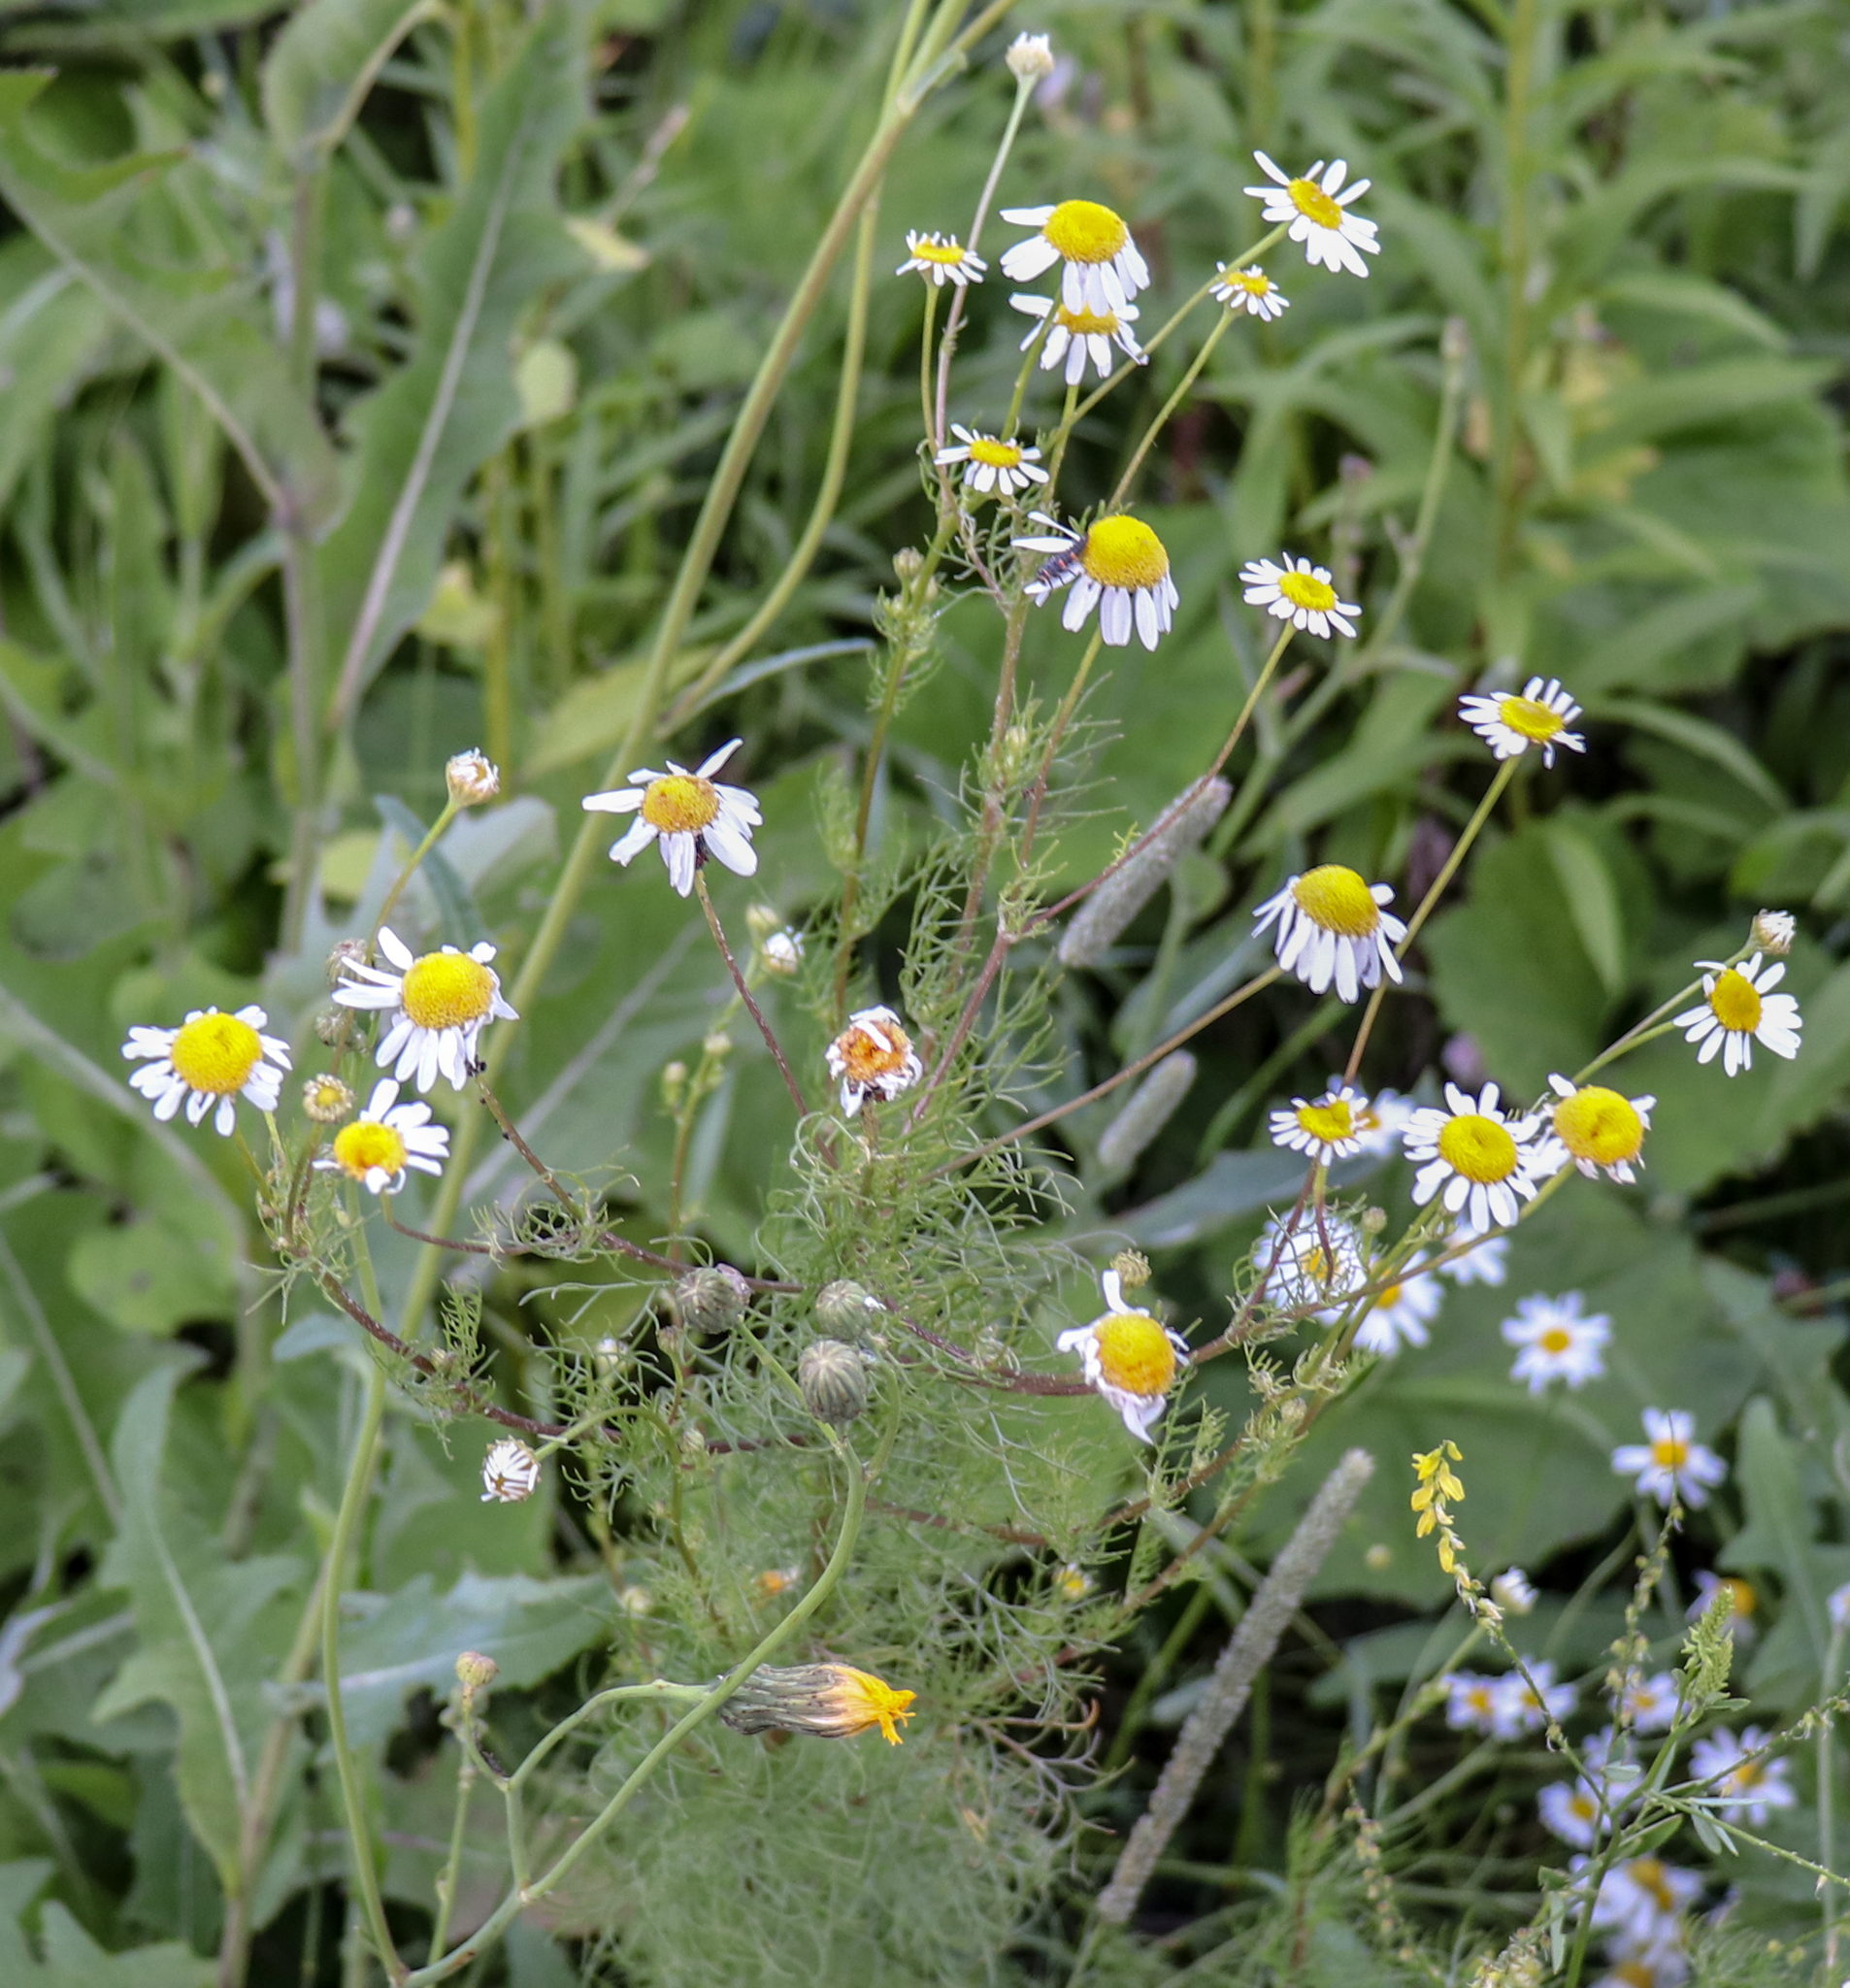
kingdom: Plantae
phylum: Tracheophyta
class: Magnoliopsida
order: Asterales
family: Asteraceae
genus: Tripleurospermum
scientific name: Tripleurospermum inodorum
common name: Scentless mayweed
